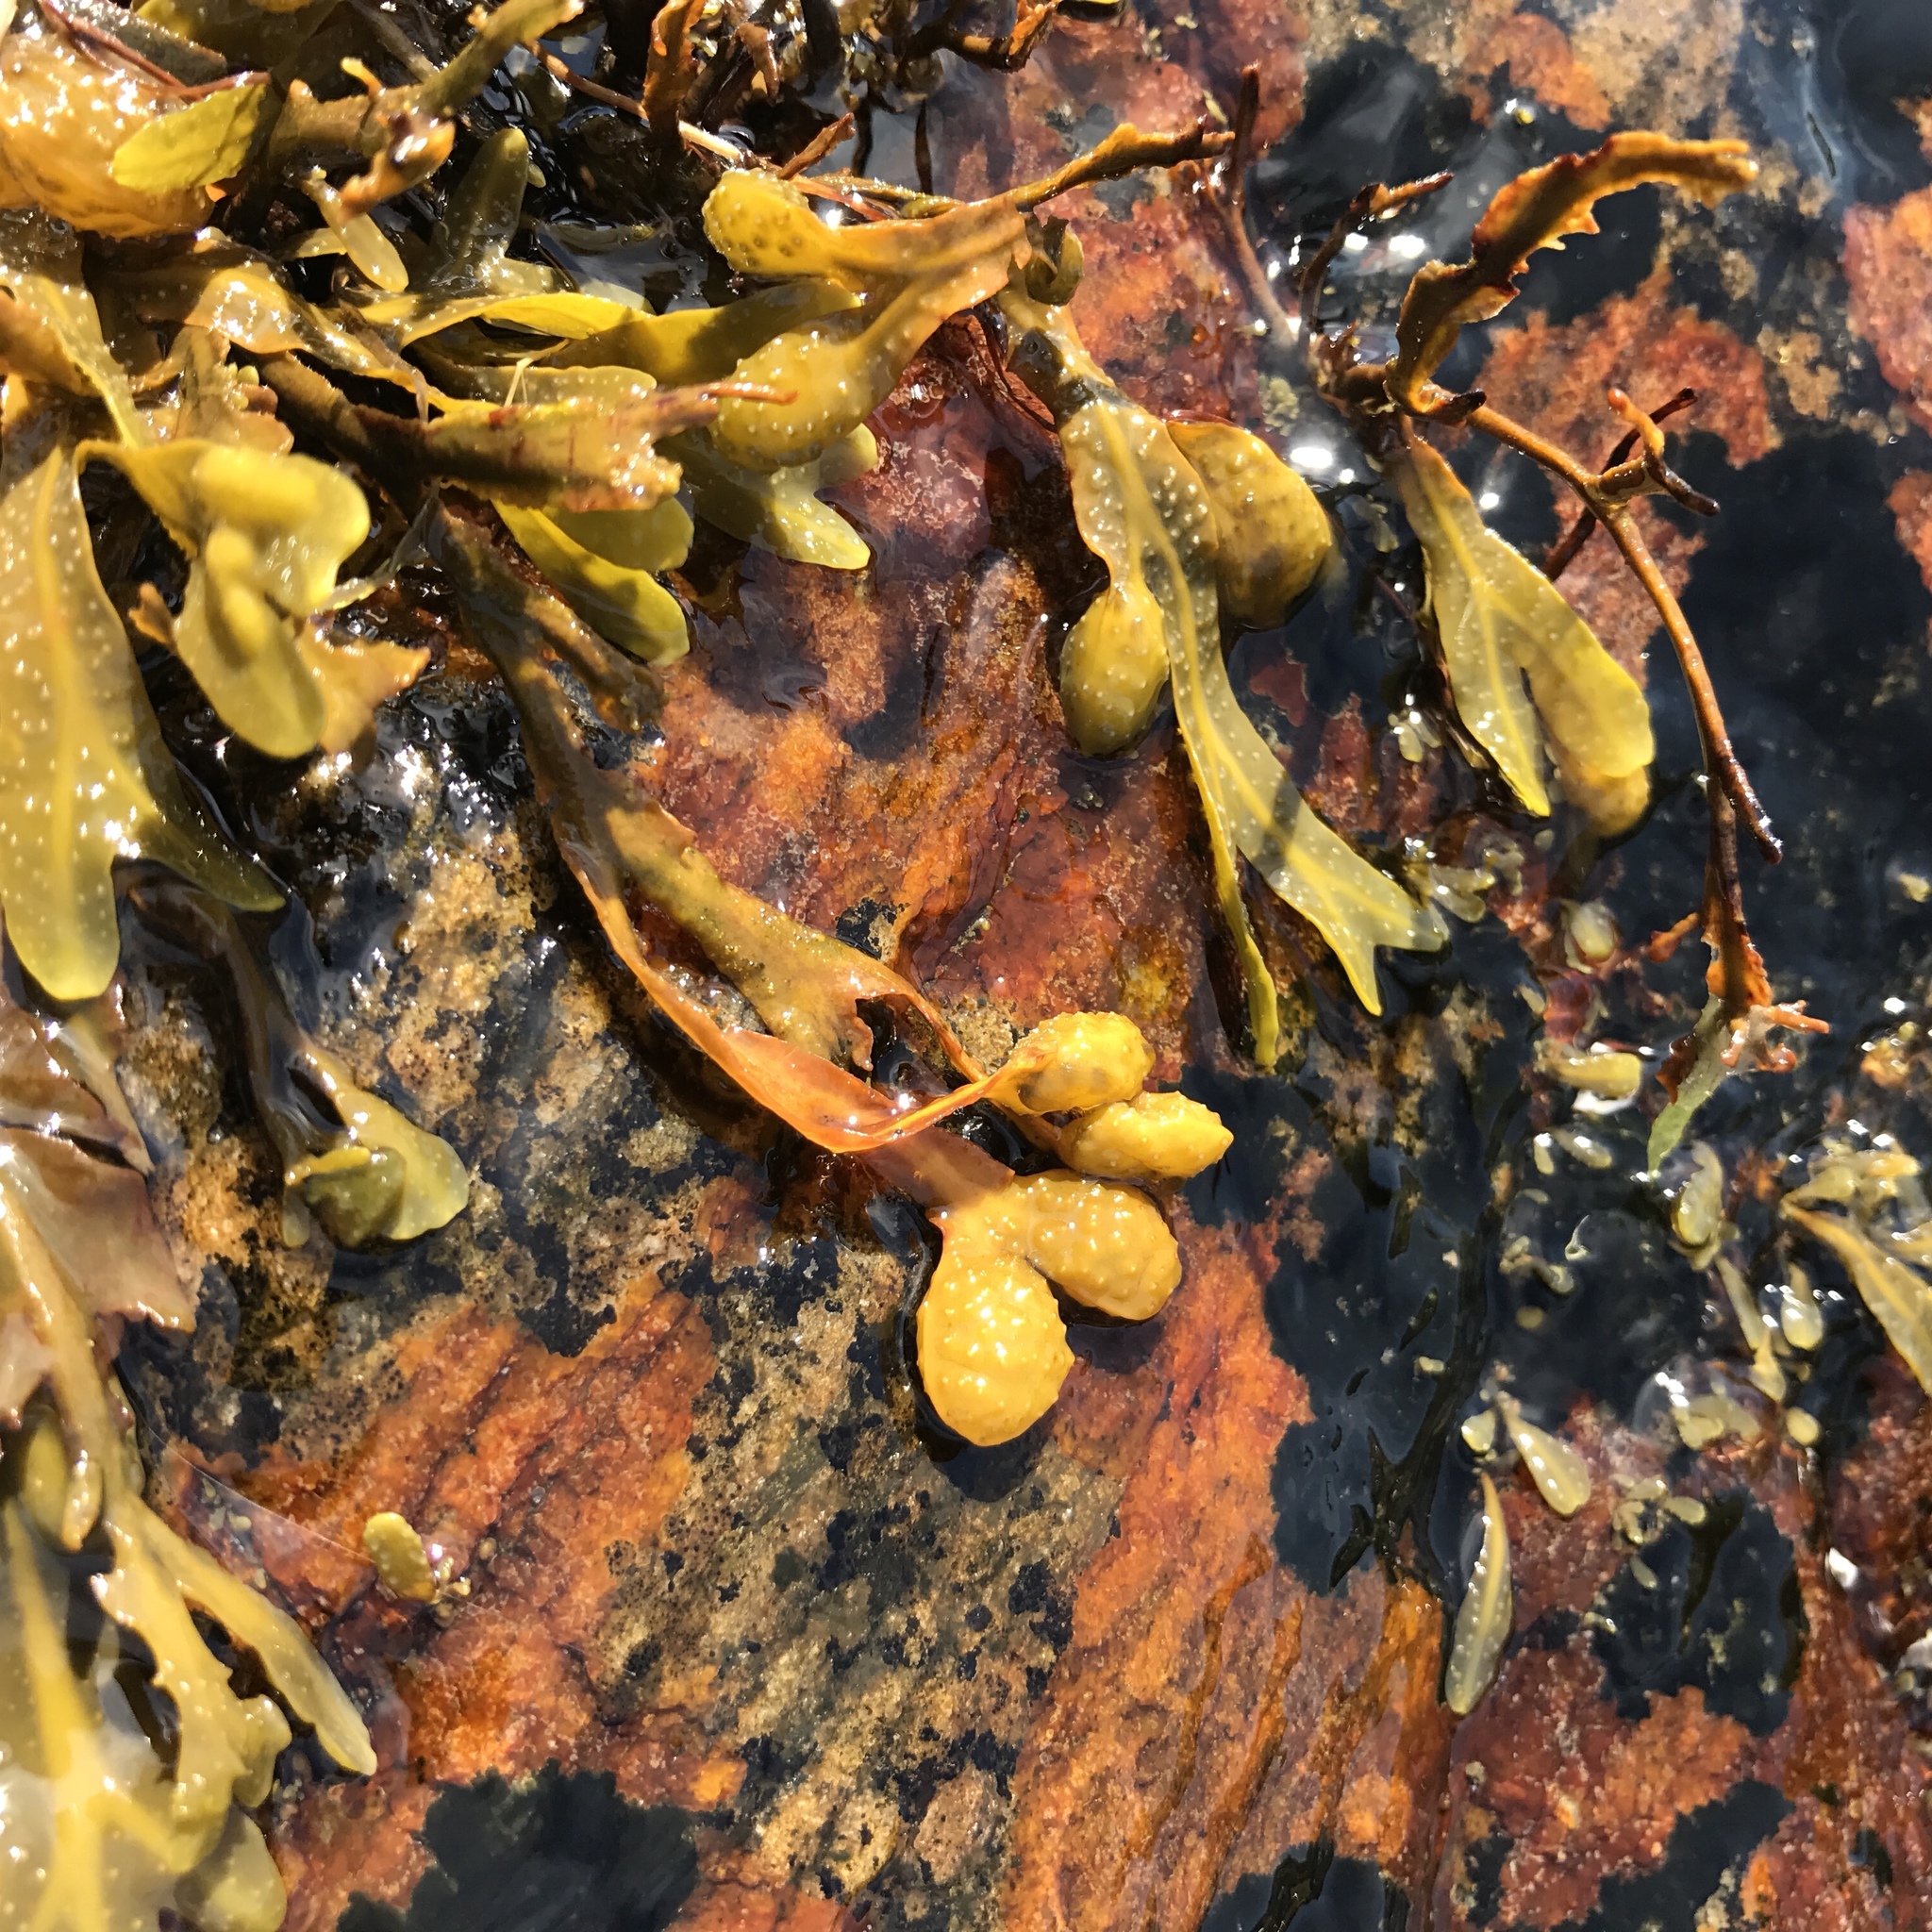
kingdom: Chromista
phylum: Ochrophyta
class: Phaeophyceae
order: Fucales
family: Fucaceae
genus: Fucus
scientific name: Fucus spiralis
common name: Spiral wrack
